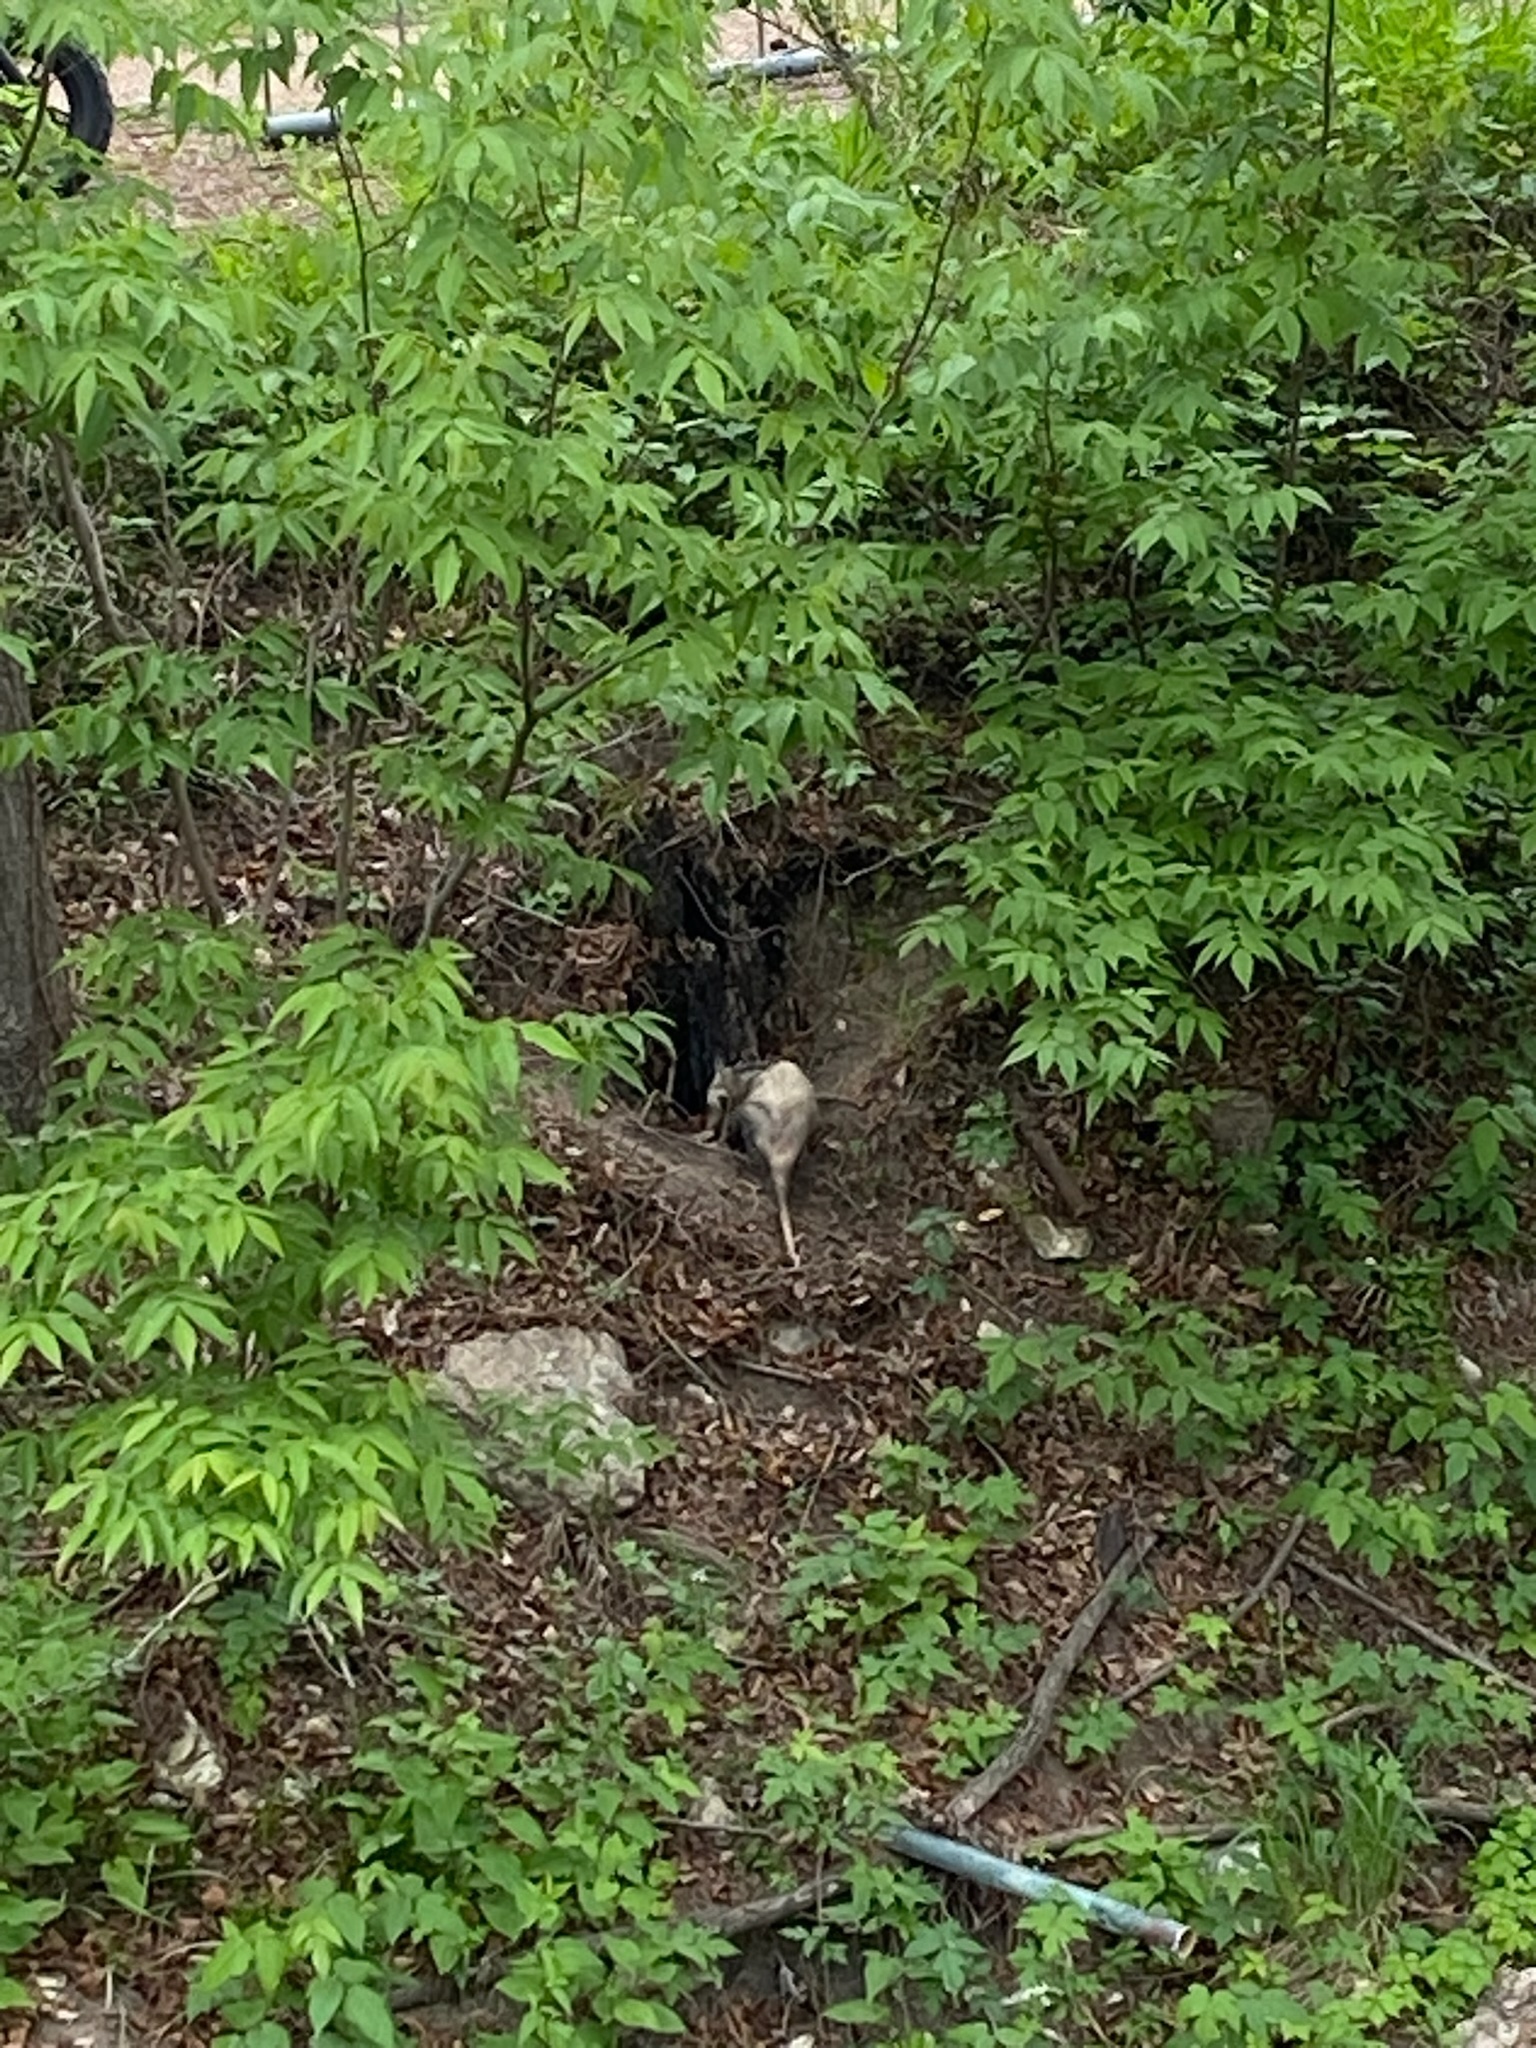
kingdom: Animalia
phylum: Chordata
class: Mammalia
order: Didelphimorphia
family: Didelphidae
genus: Didelphis
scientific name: Didelphis virginiana
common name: Virginia opossum
